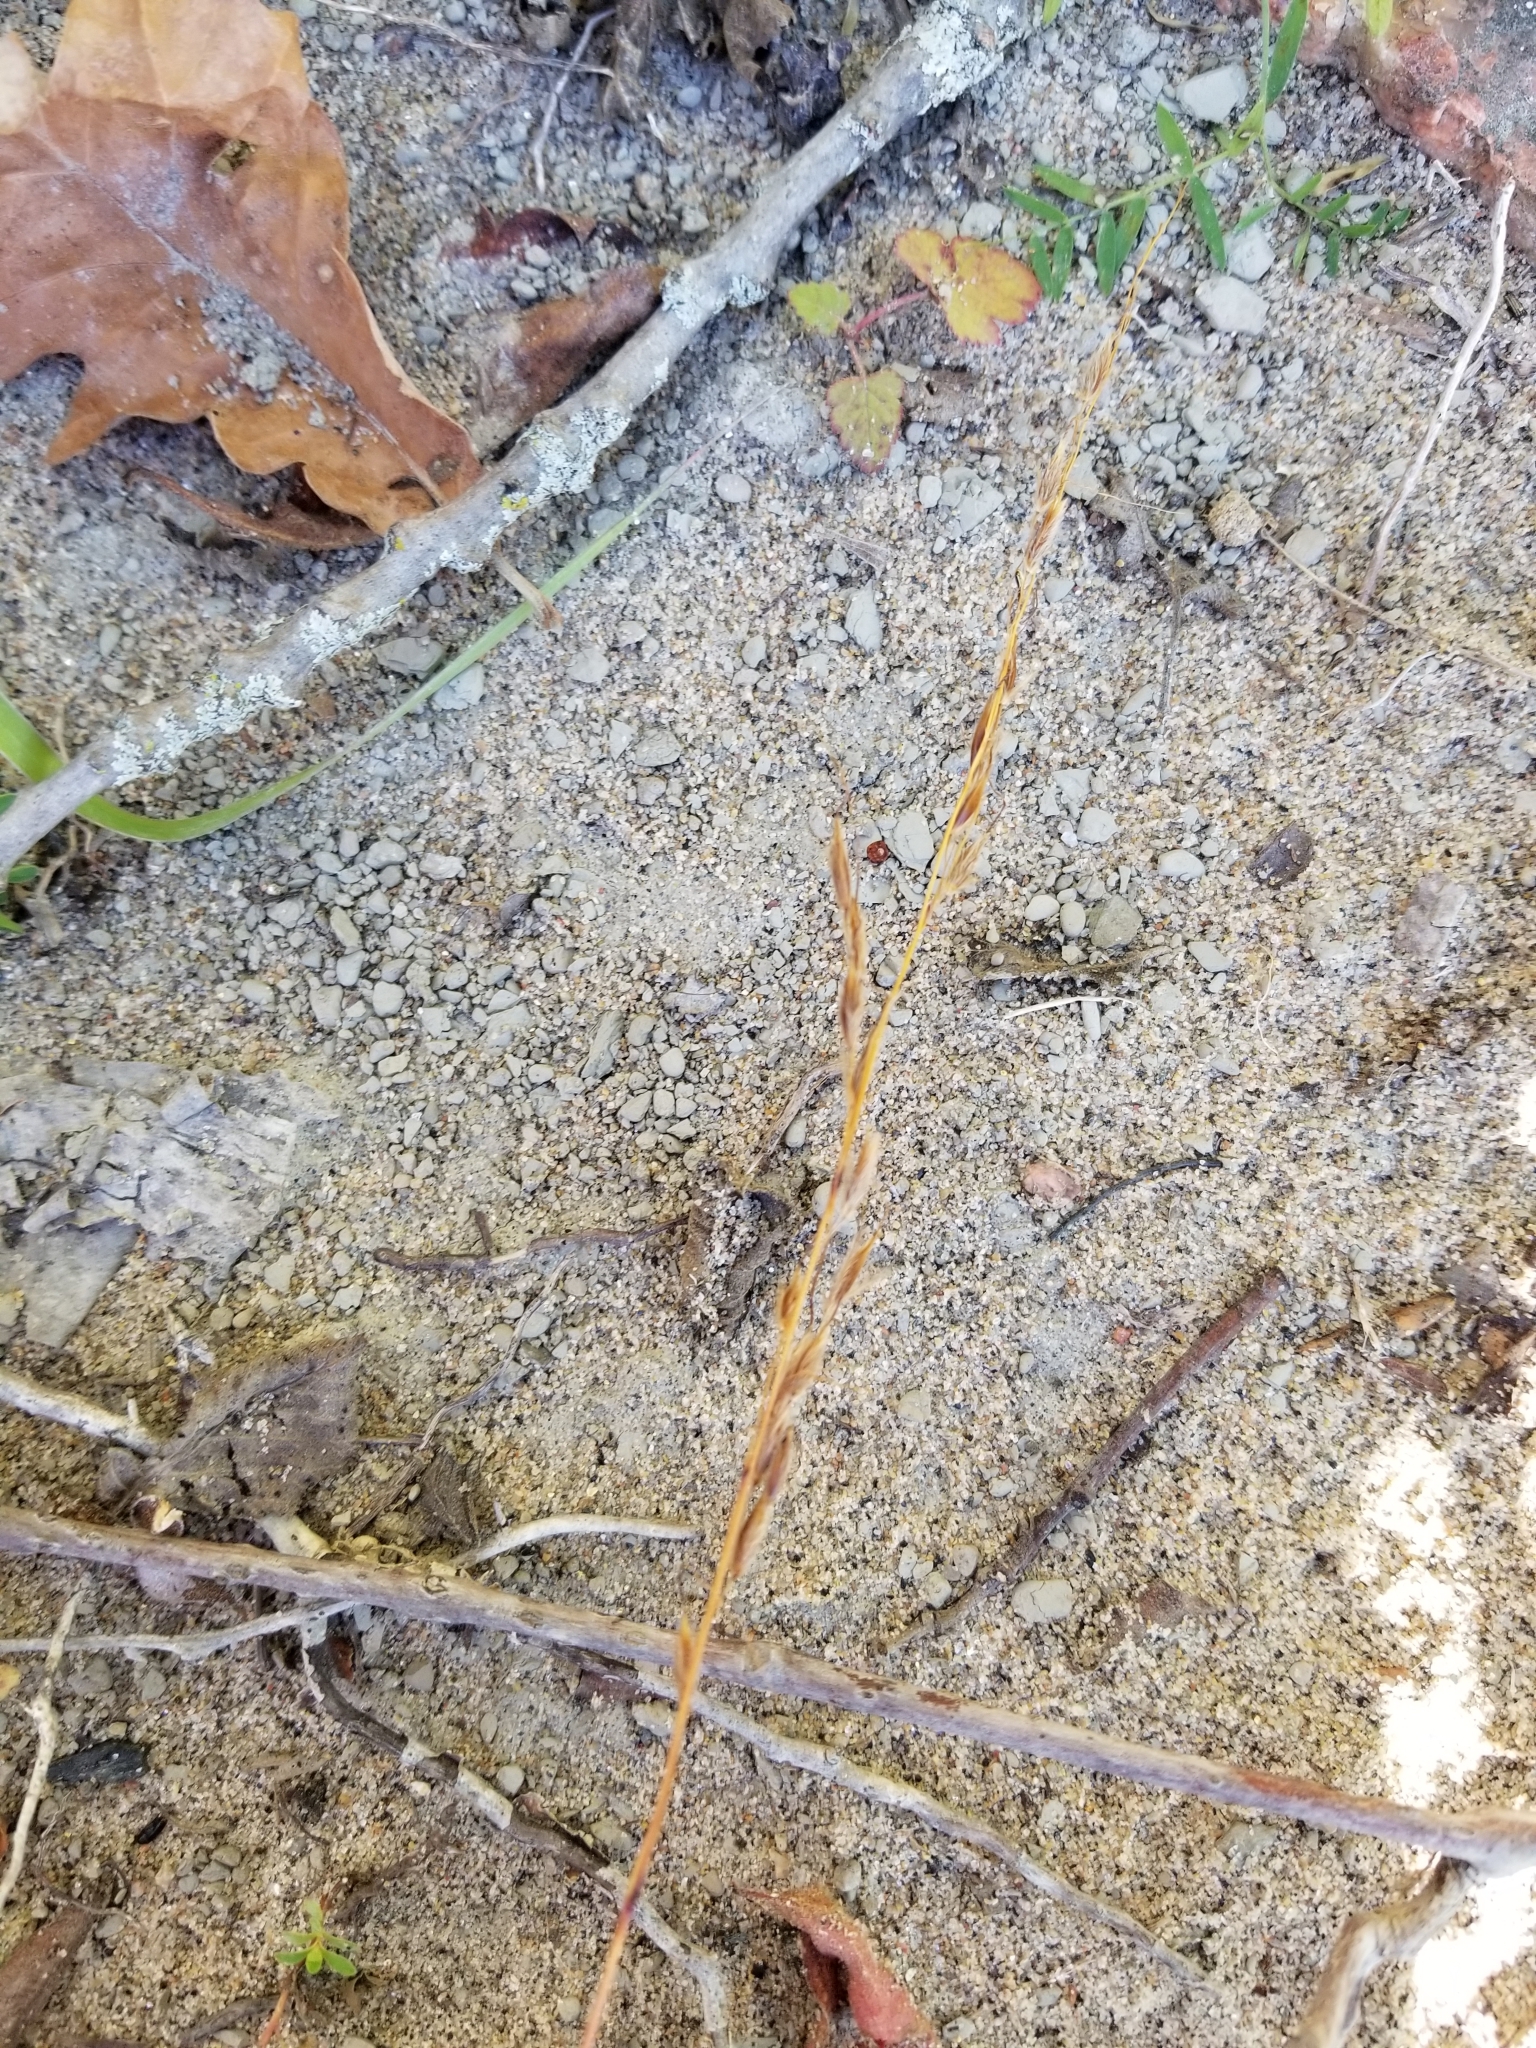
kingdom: Plantae
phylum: Tracheophyta
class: Liliopsida
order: Poales
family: Poaceae
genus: Sorghastrum
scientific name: Sorghastrum nutans
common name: Indian grass
